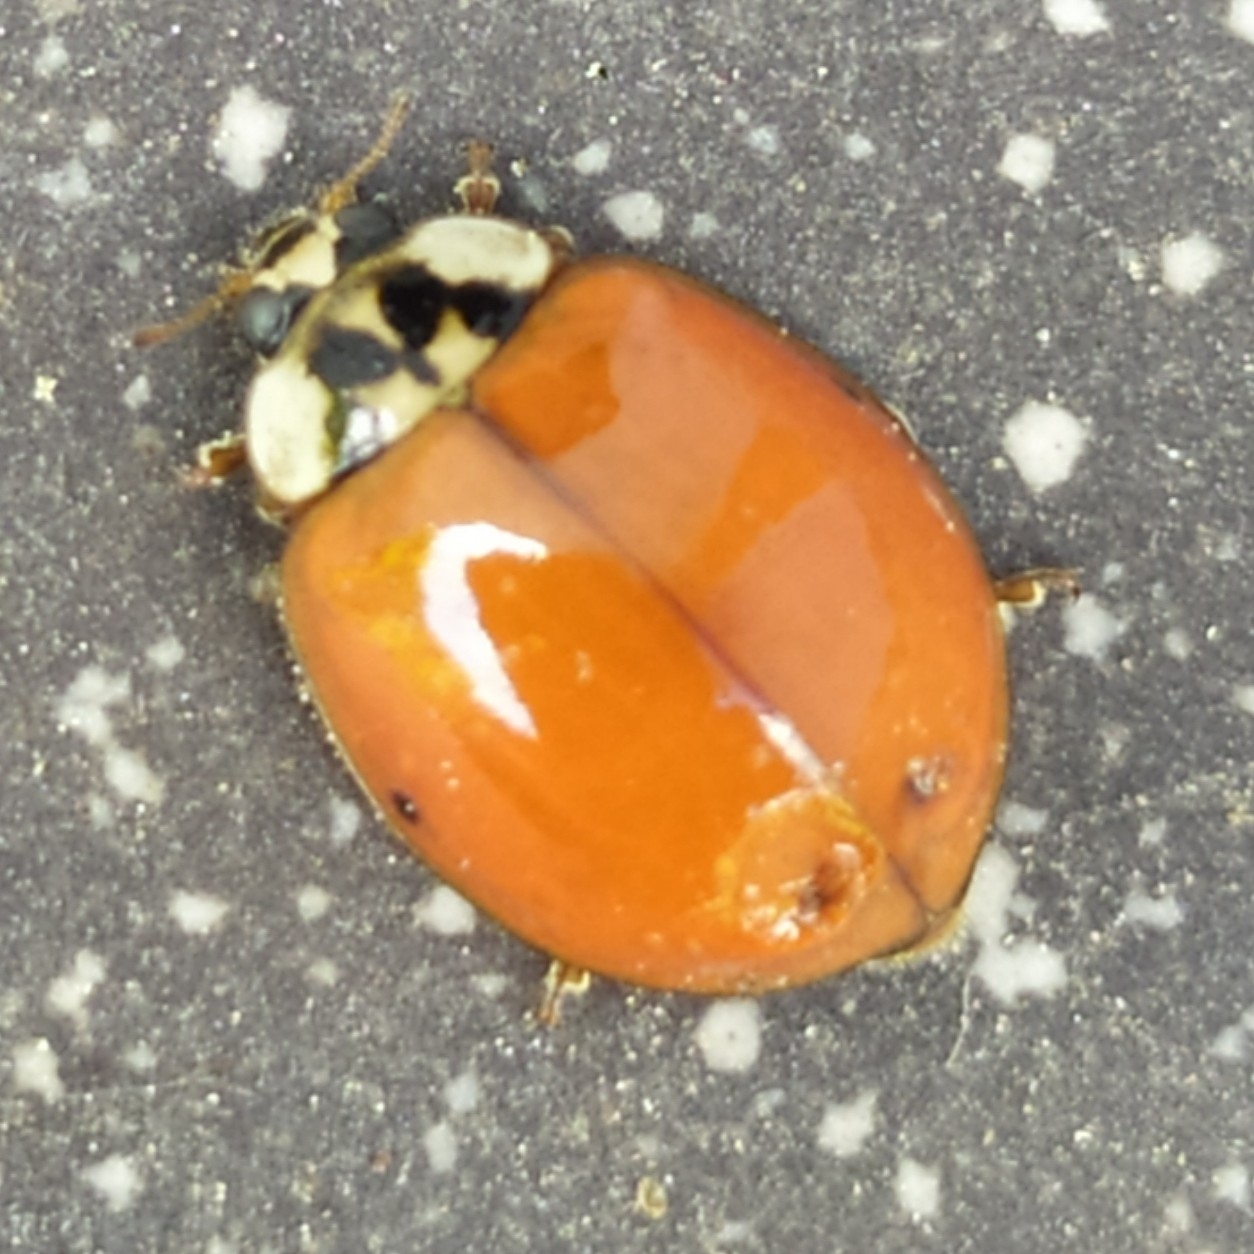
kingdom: Animalia
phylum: Arthropoda
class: Insecta
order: Coleoptera
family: Coccinellidae
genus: Harmonia
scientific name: Harmonia axyridis
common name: Harlequin ladybird
